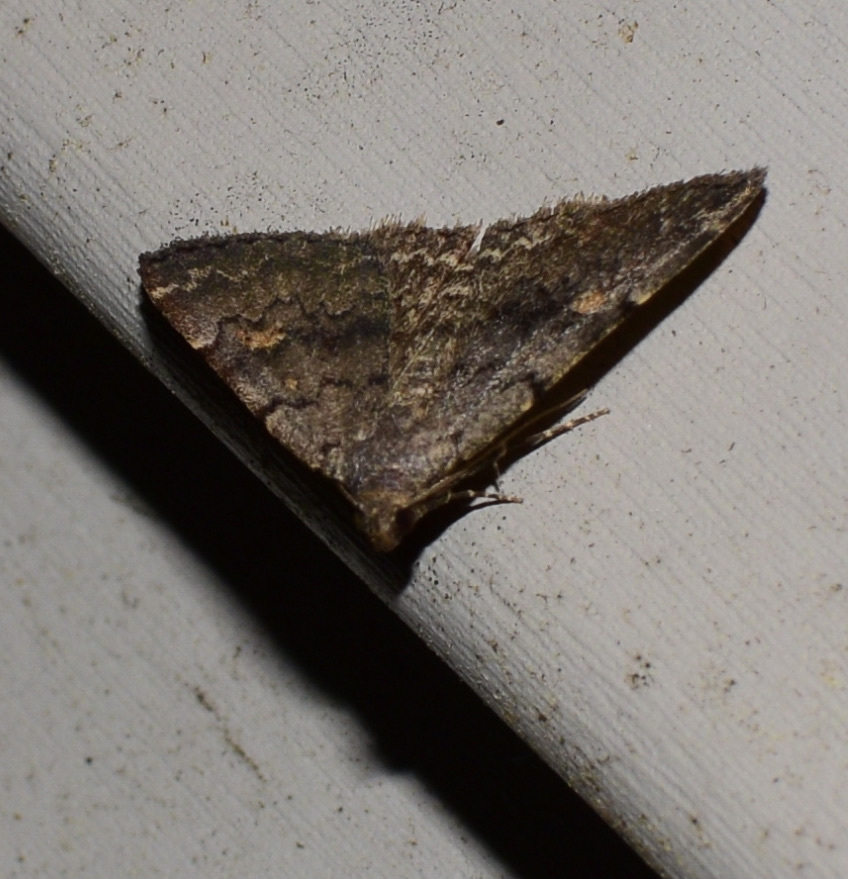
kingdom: Animalia
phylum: Arthropoda
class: Insecta
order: Lepidoptera
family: Erebidae
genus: Idia
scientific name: Idia aemula
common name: Common idia moth
